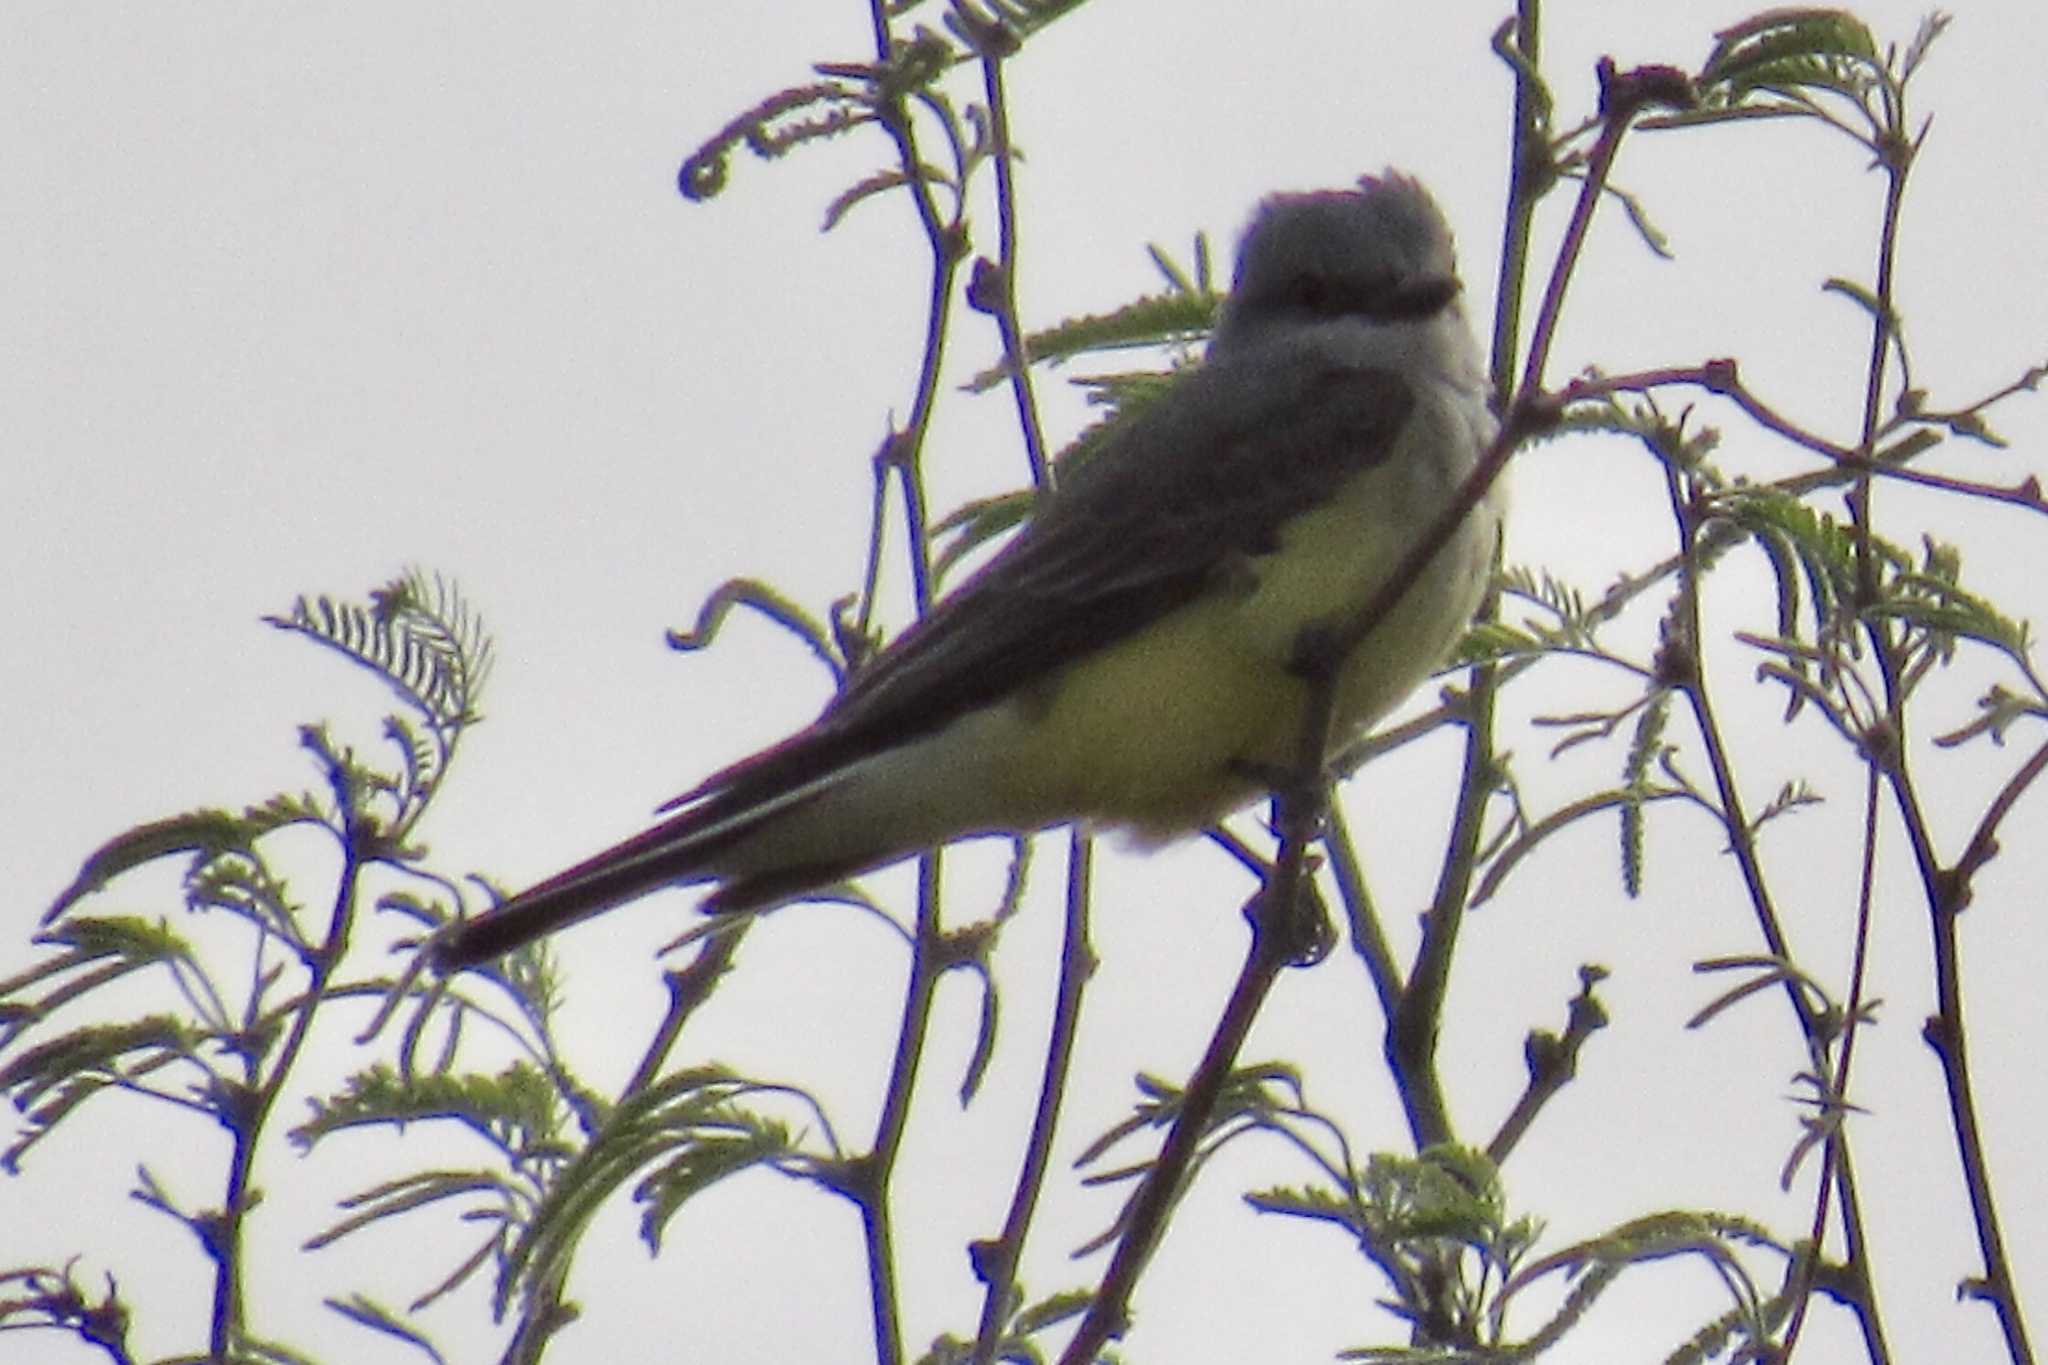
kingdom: Animalia
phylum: Chordata
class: Aves
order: Passeriformes
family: Tyrannidae
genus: Tyrannus
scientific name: Tyrannus verticalis
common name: Western kingbird
